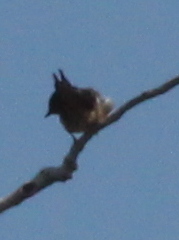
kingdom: Animalia
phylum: Chordata
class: Aves
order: Passeriformes
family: Hirundinidae
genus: Hirundo
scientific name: Hirundo rustica
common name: Barn swallow
